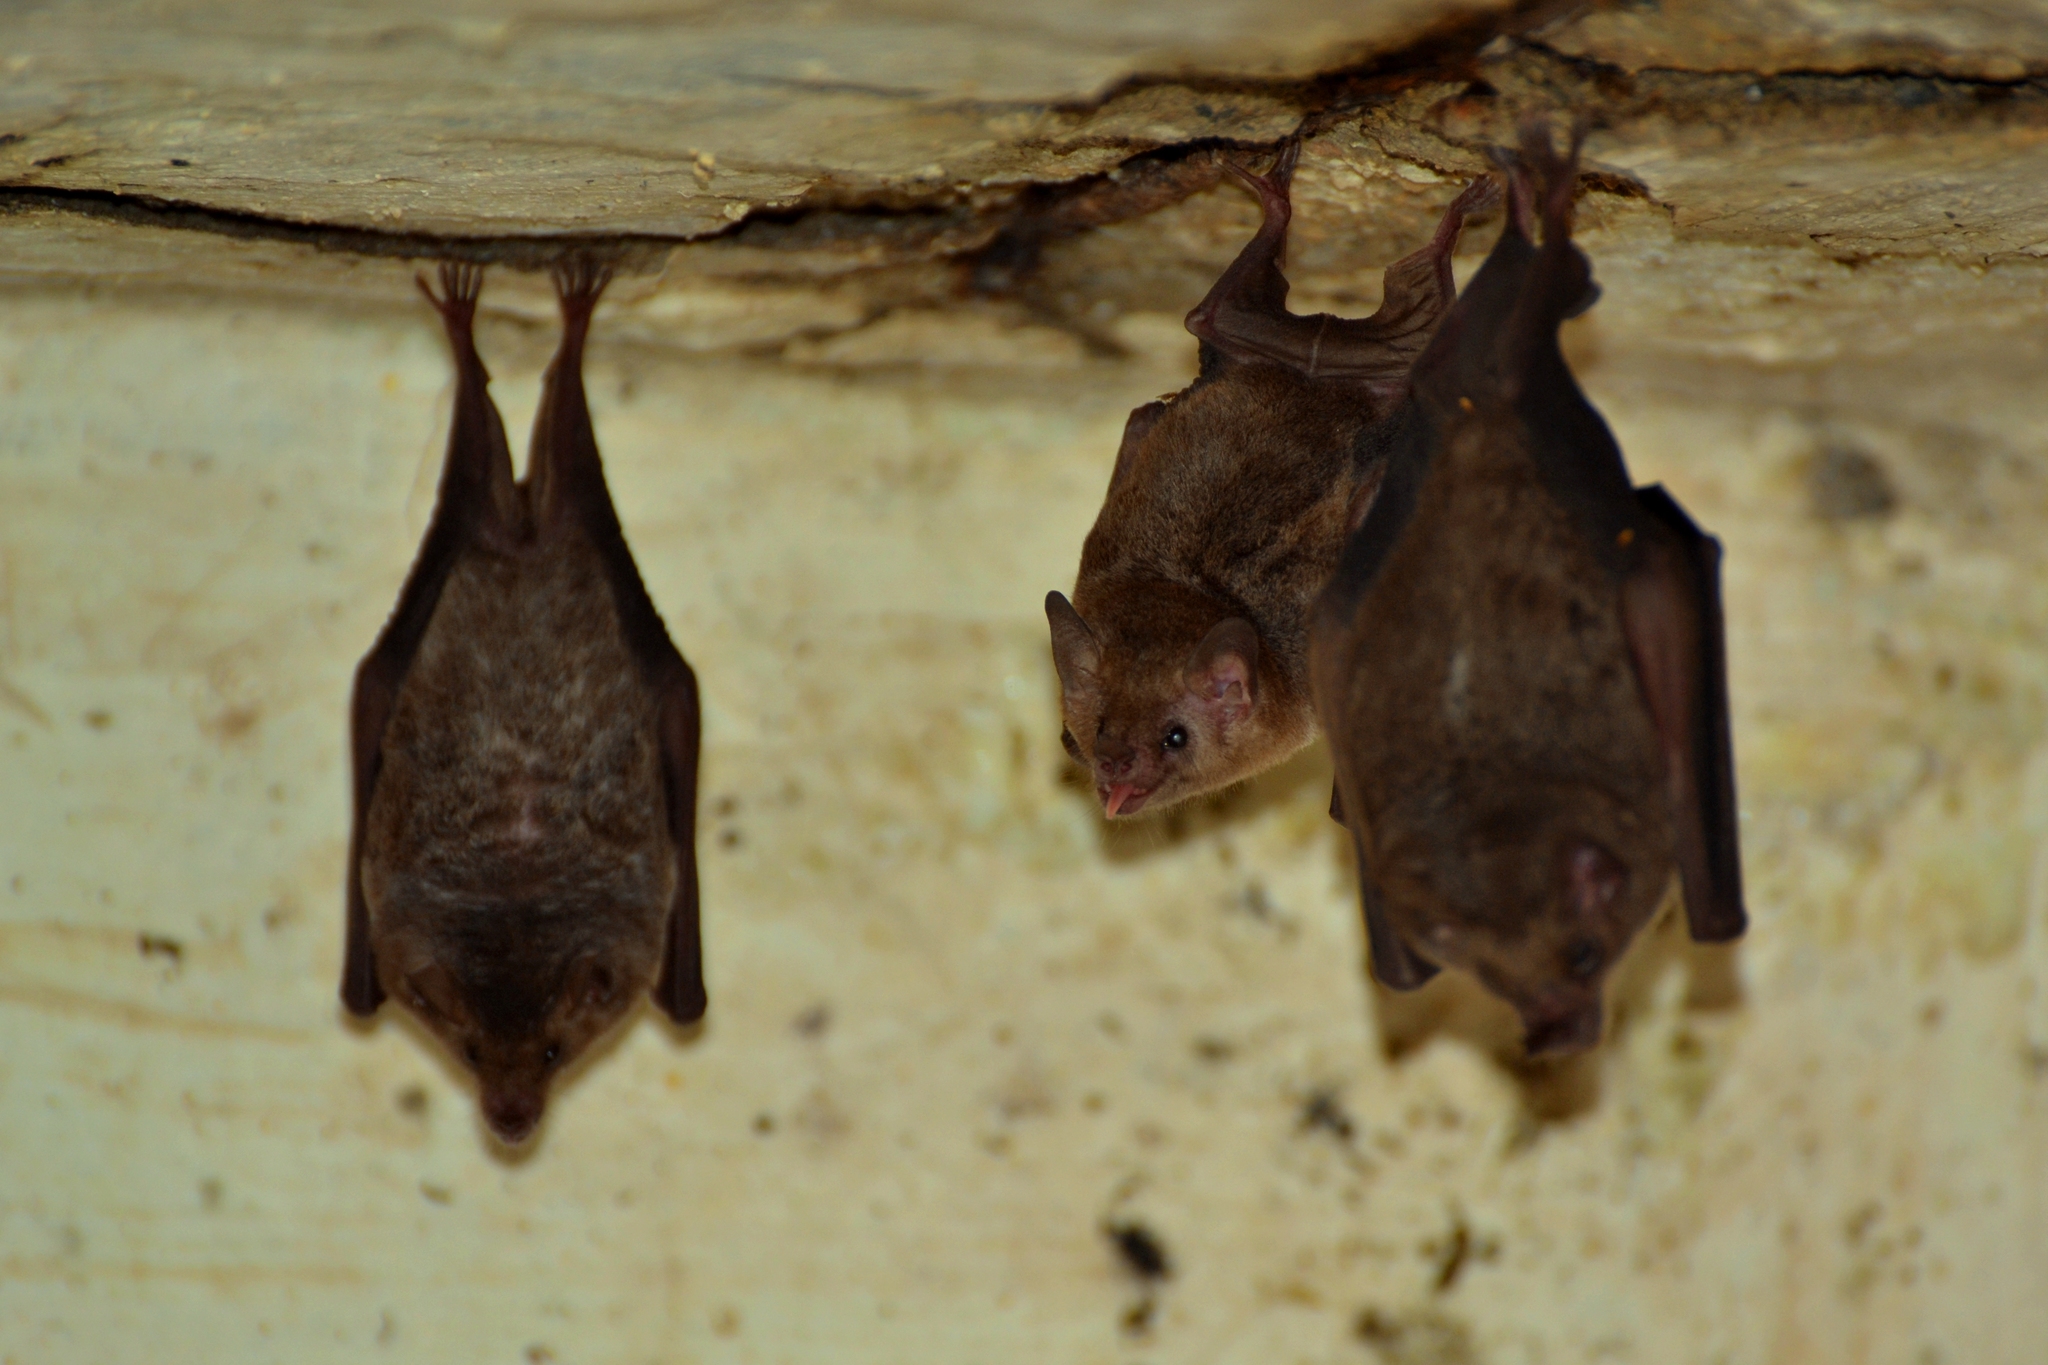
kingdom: Animalia
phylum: Chordata
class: Mammalia
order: Chiroptera
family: Phyllostomidae
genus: Glossophaga
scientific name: Glossophaga soricina
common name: Pallas's long-tongued bat
